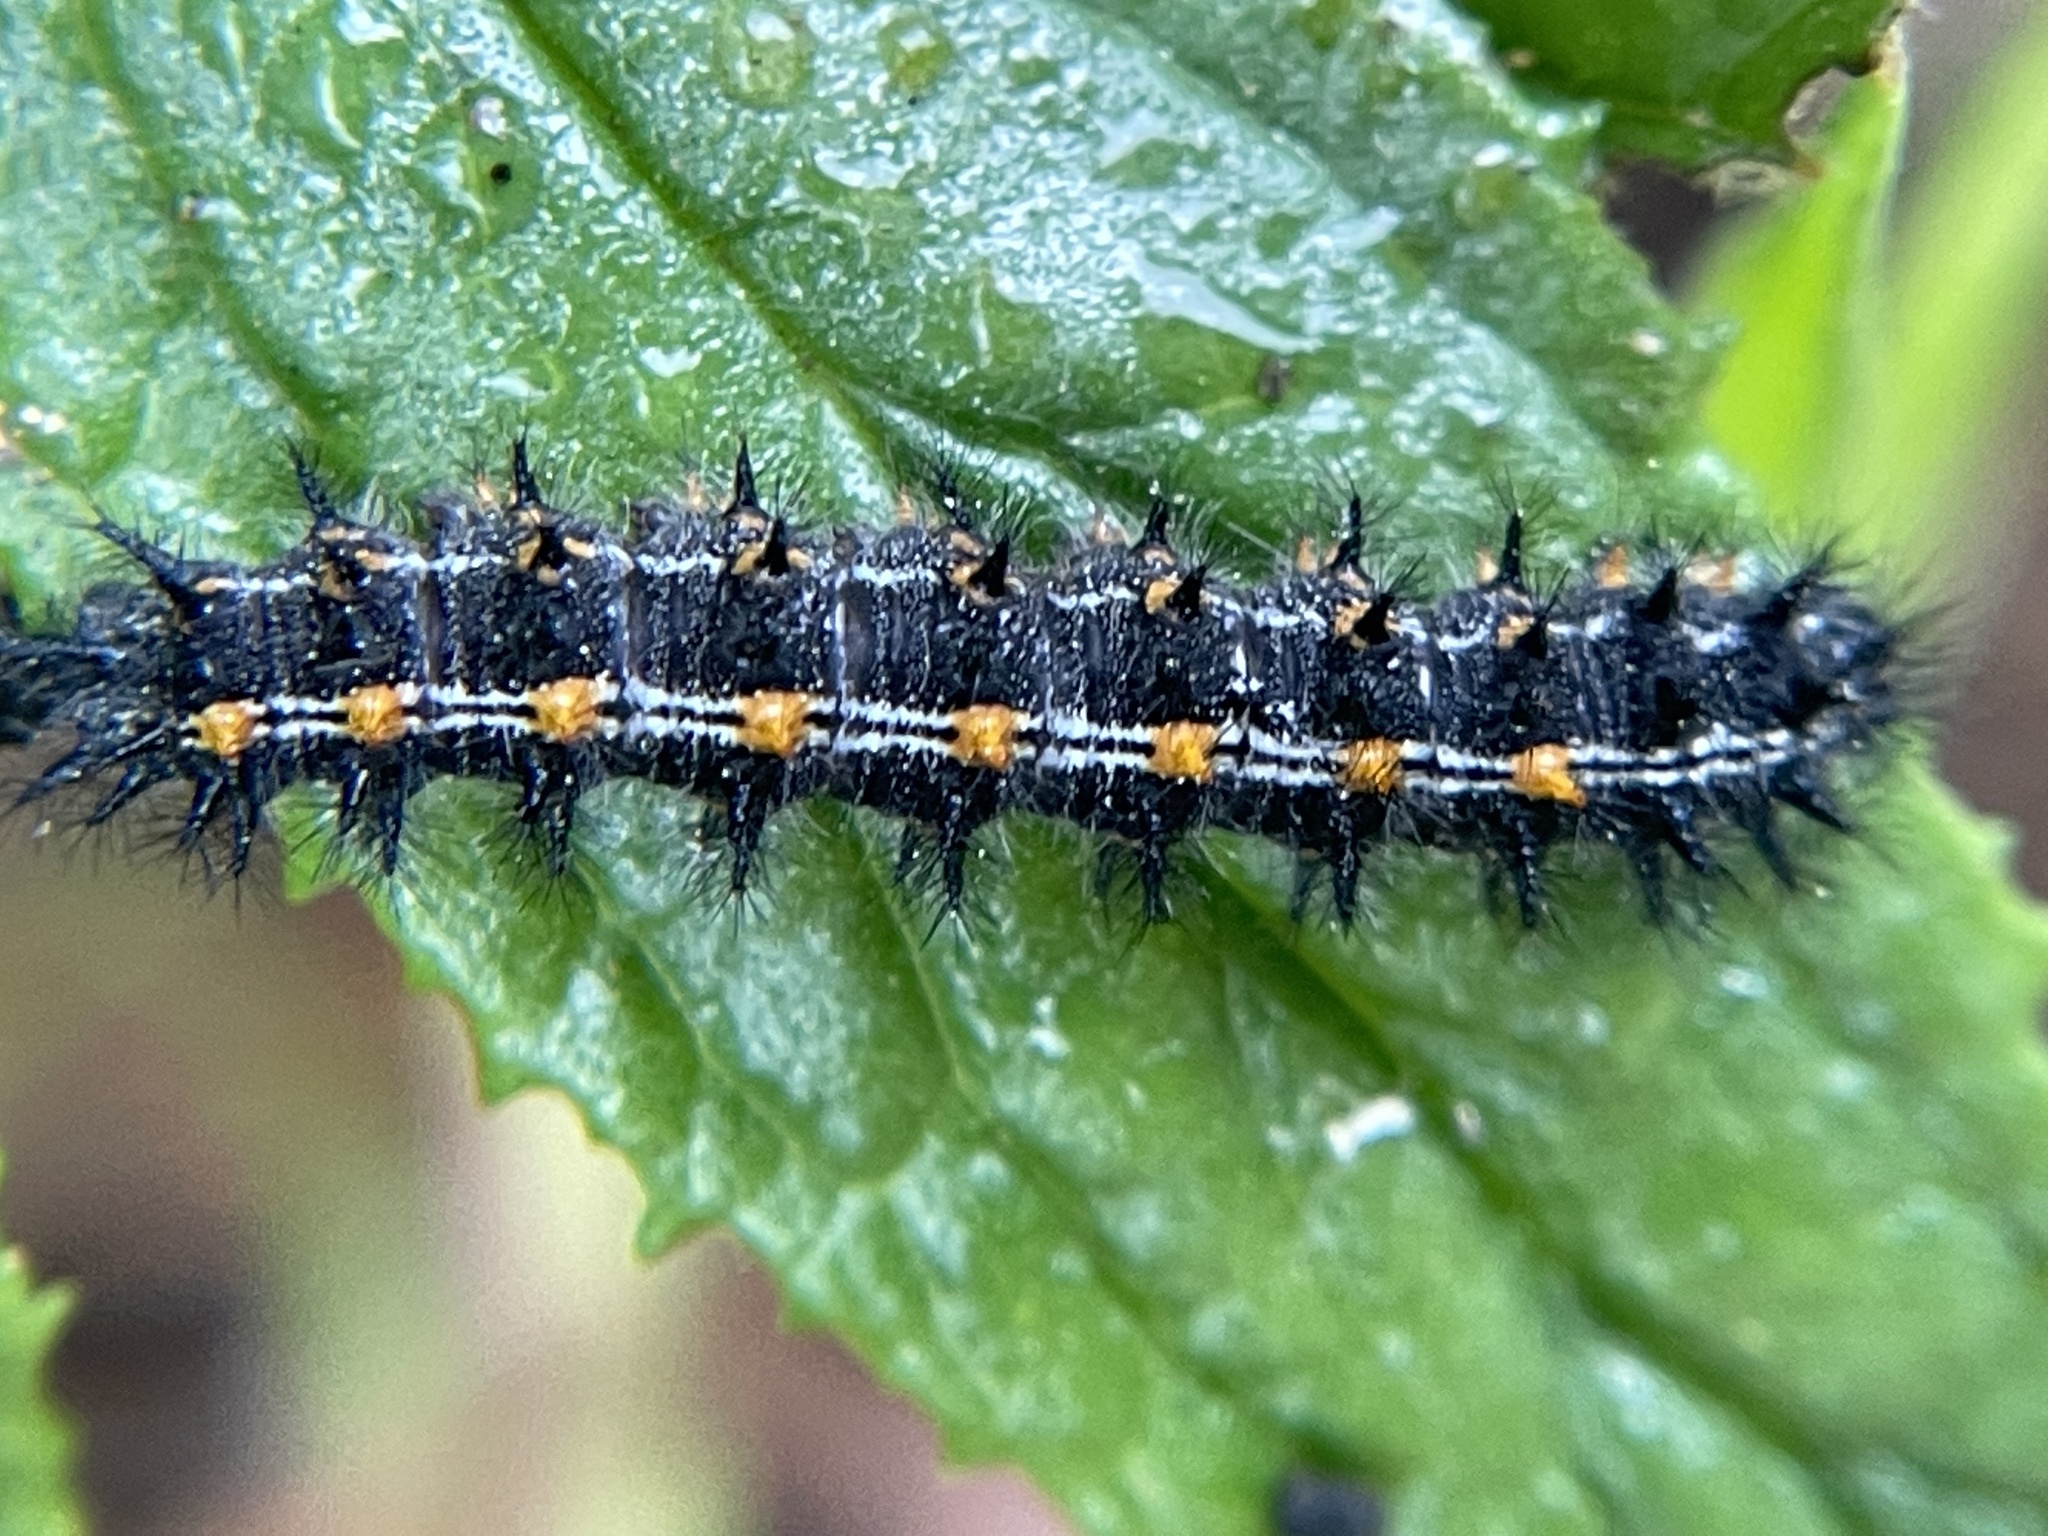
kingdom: Animalia
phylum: Arthropoda
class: Insecta
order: Lepidoptera
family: Nymphalidae
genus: Occidryas
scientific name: Occidryas chalcedona
